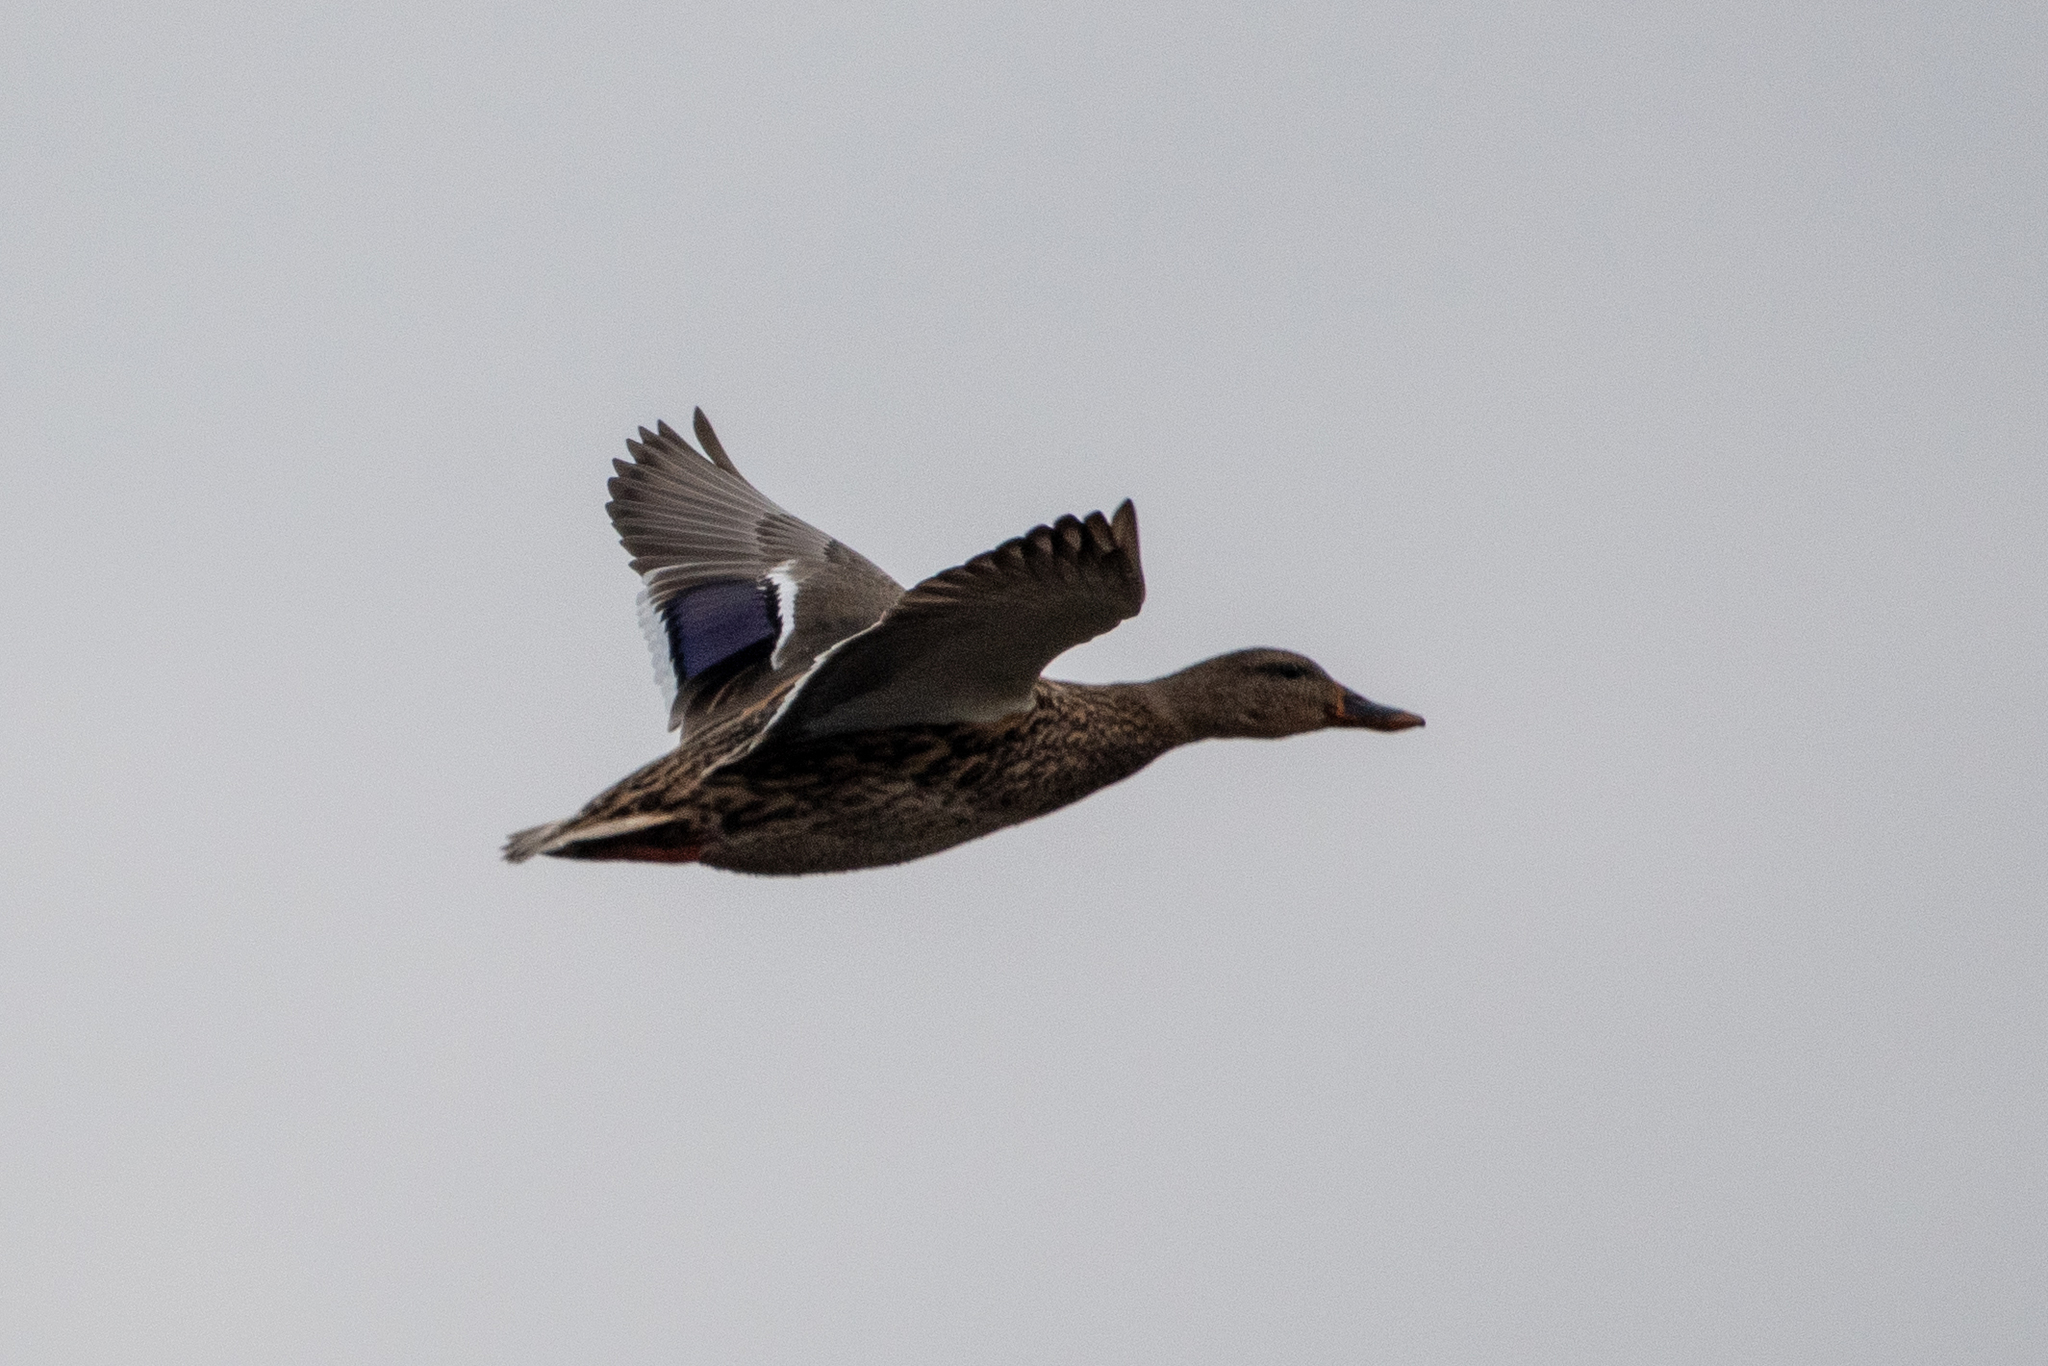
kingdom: Animalia
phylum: Chordata
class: Aves
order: Anseriformes
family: Anatidae
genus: Anas
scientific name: Anas platyrhynchos
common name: Mallard
